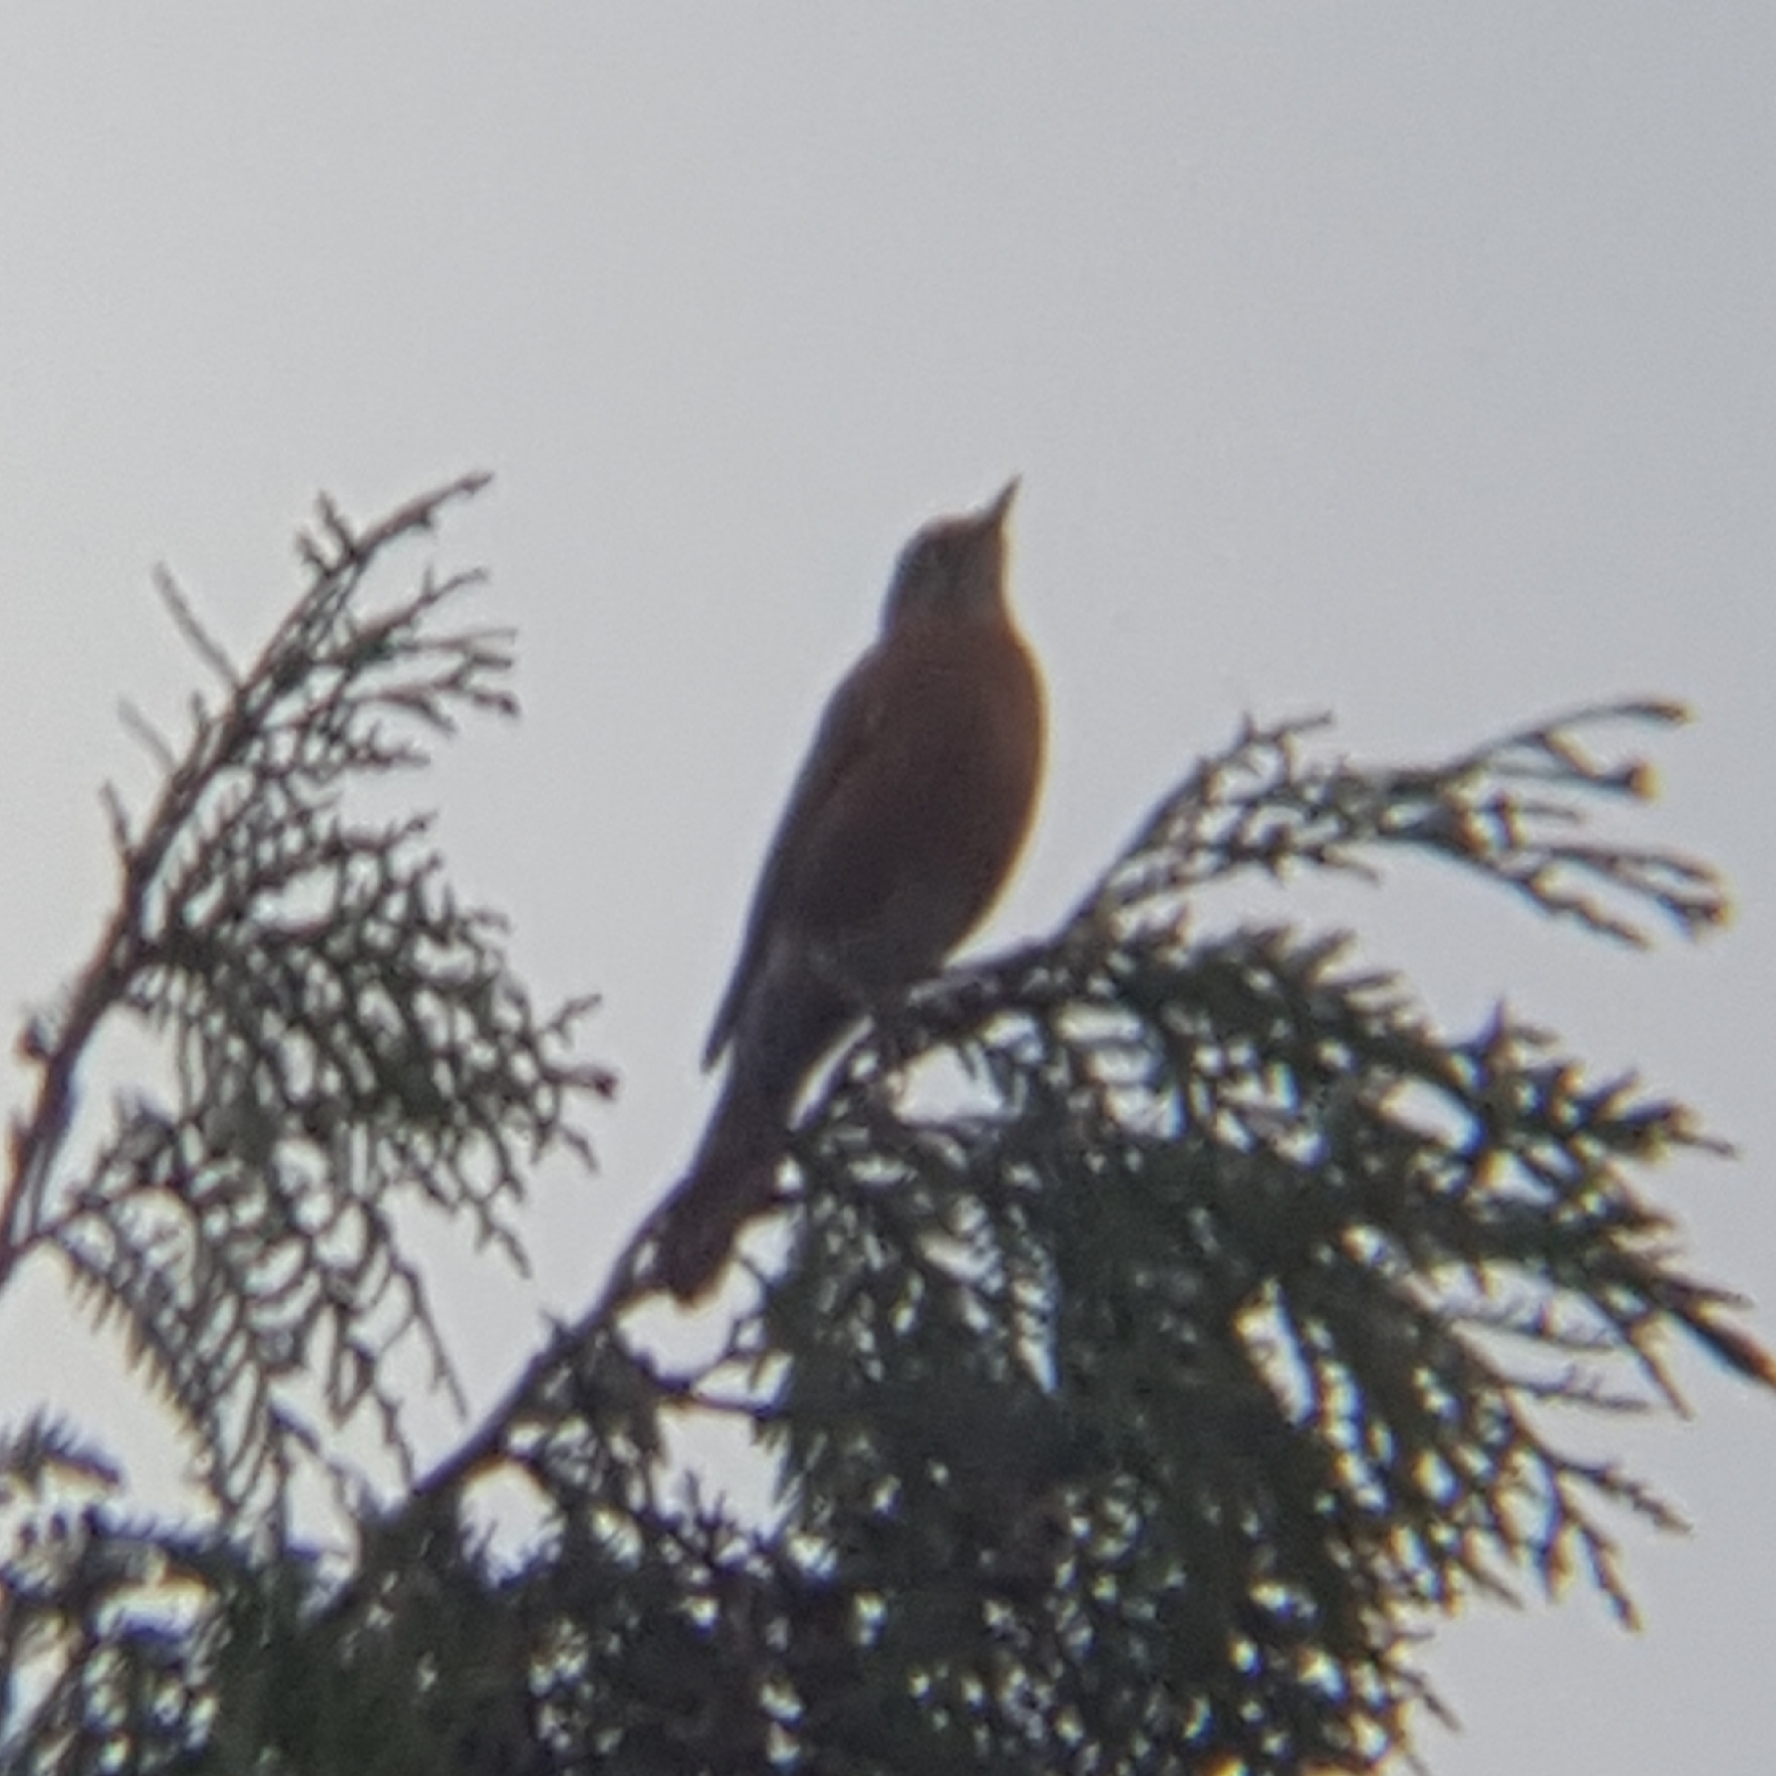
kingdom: Animalia
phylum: Chordata
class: Aves
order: Passeriformes
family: Turdidae
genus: Turdus
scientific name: Turdus migratorius
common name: American robin
